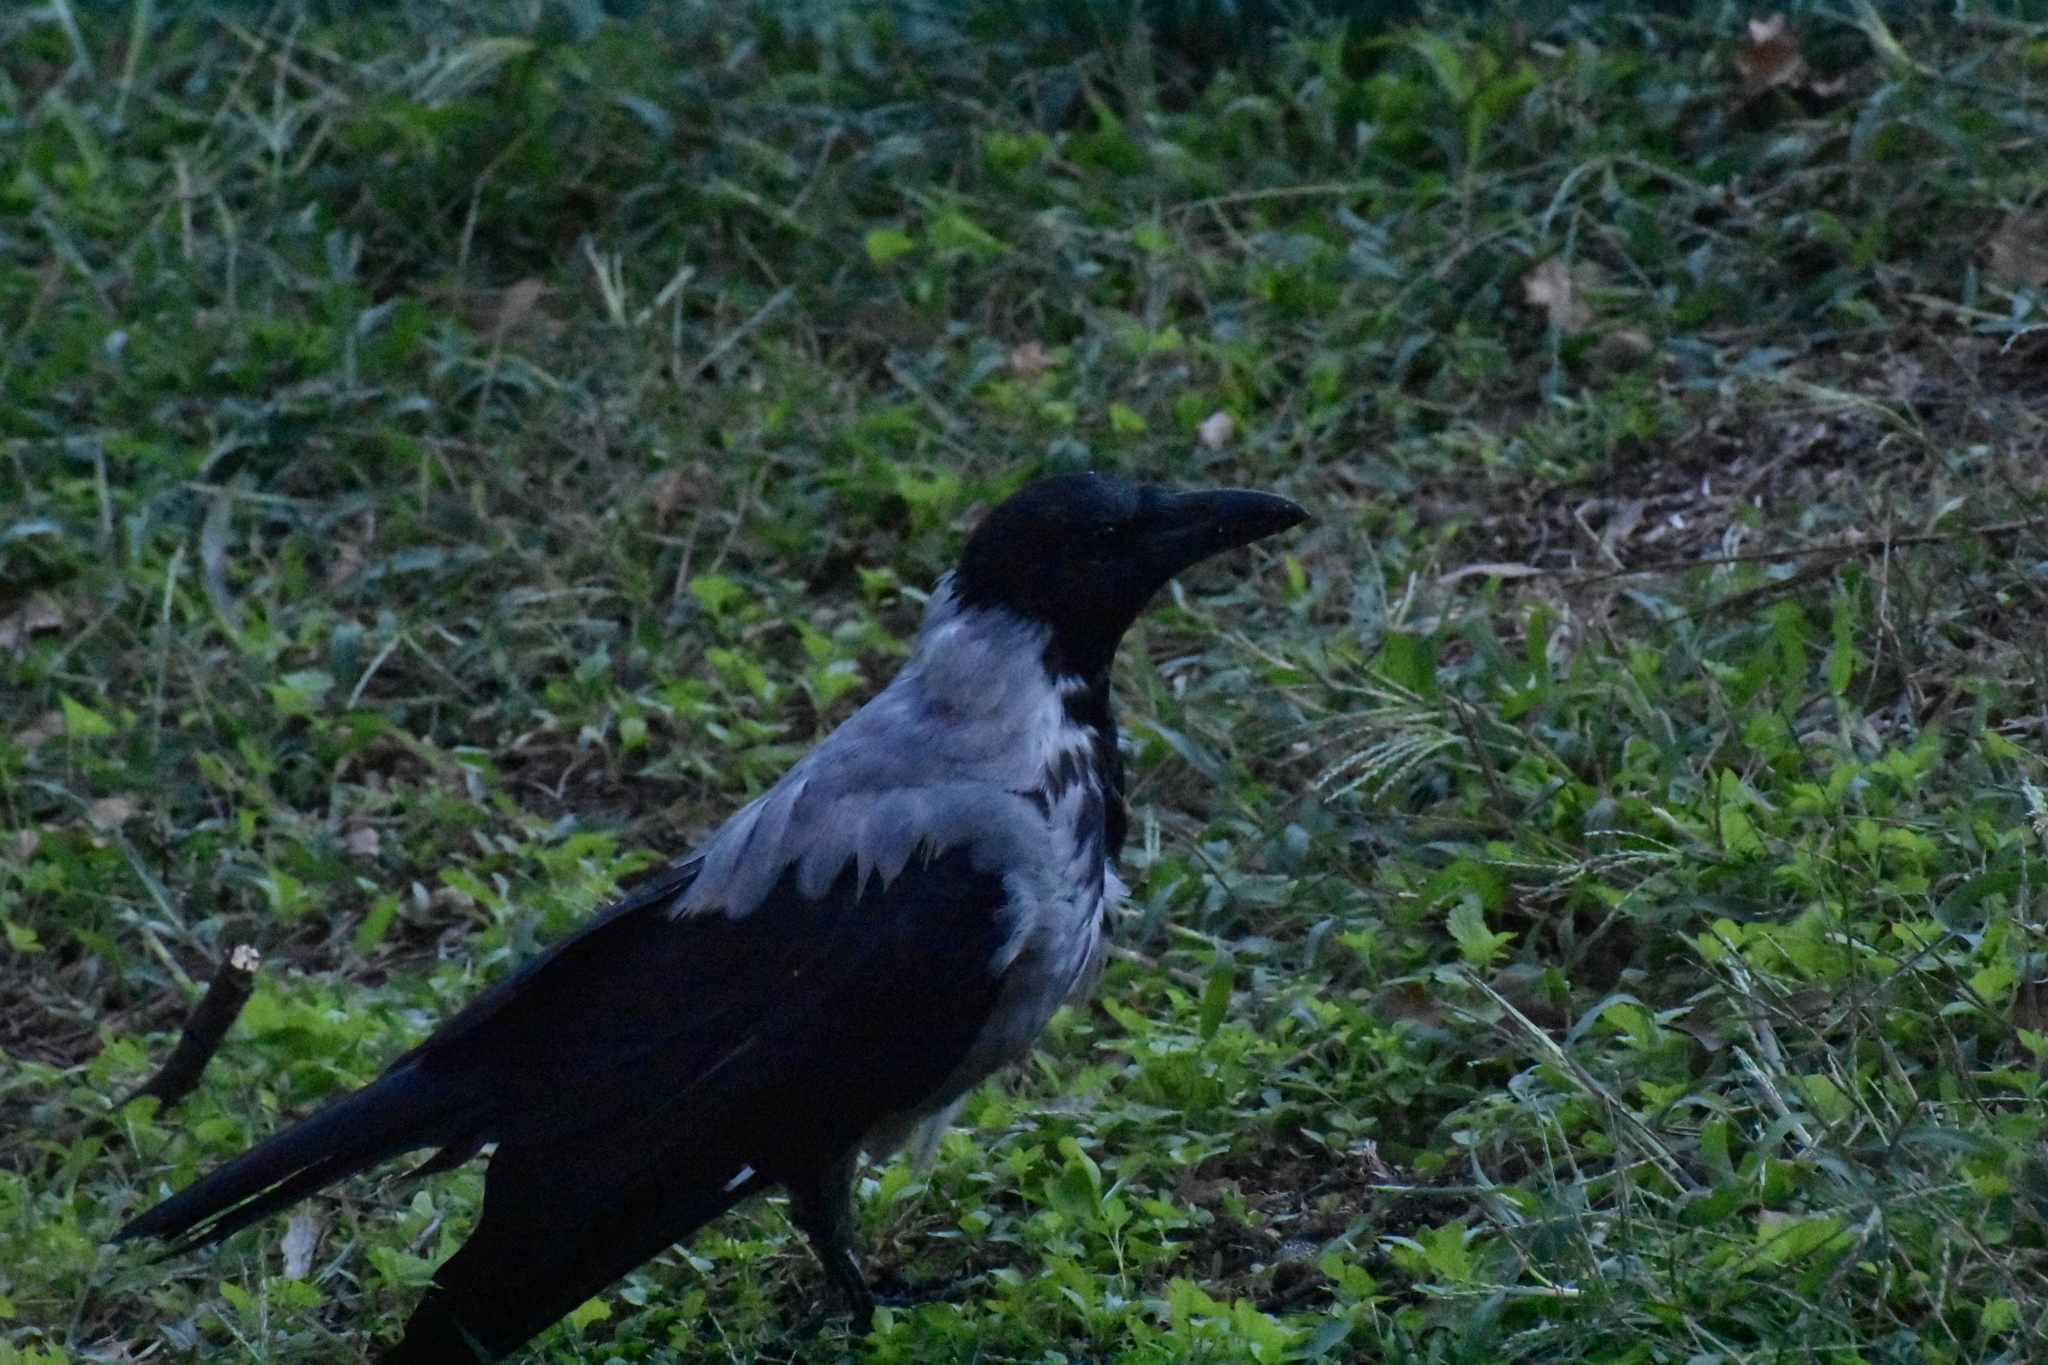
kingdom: Animalia
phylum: Chordata
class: Aves
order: Passeriformes
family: Corvidae
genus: Corvus
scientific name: Corvus cornix
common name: Hooded crow
